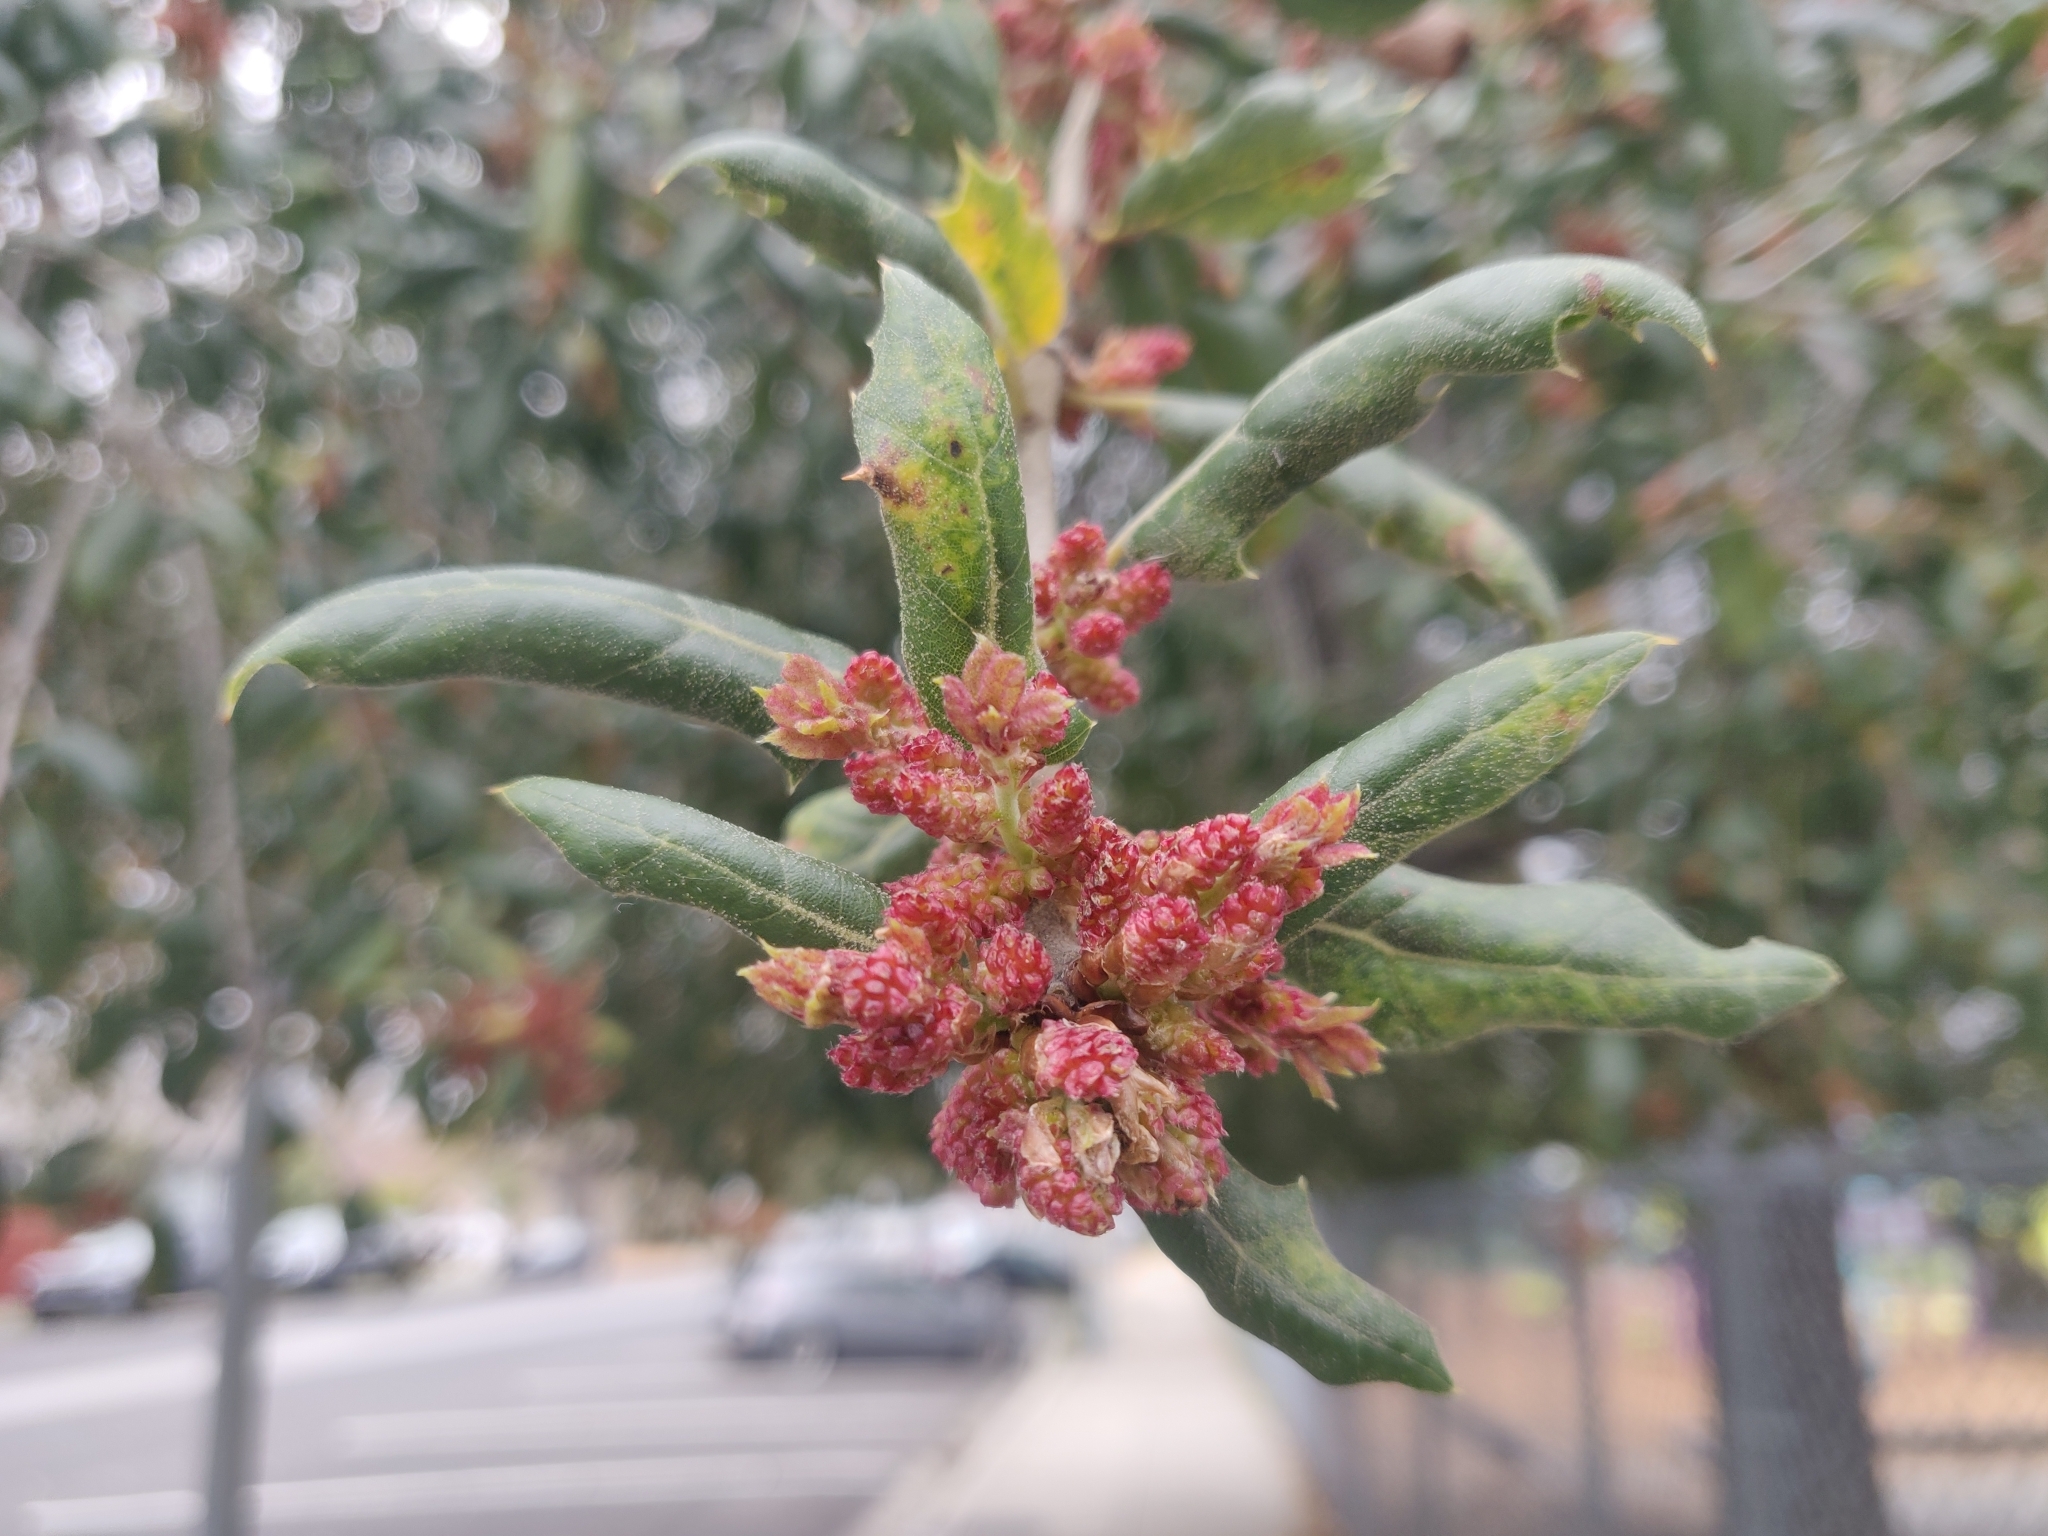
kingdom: Plantae
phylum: Tracheophyta
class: Magnoliopsida
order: Fagales
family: Fagaceae
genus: Quercus
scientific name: Quercus agrifolia
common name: California live oak
